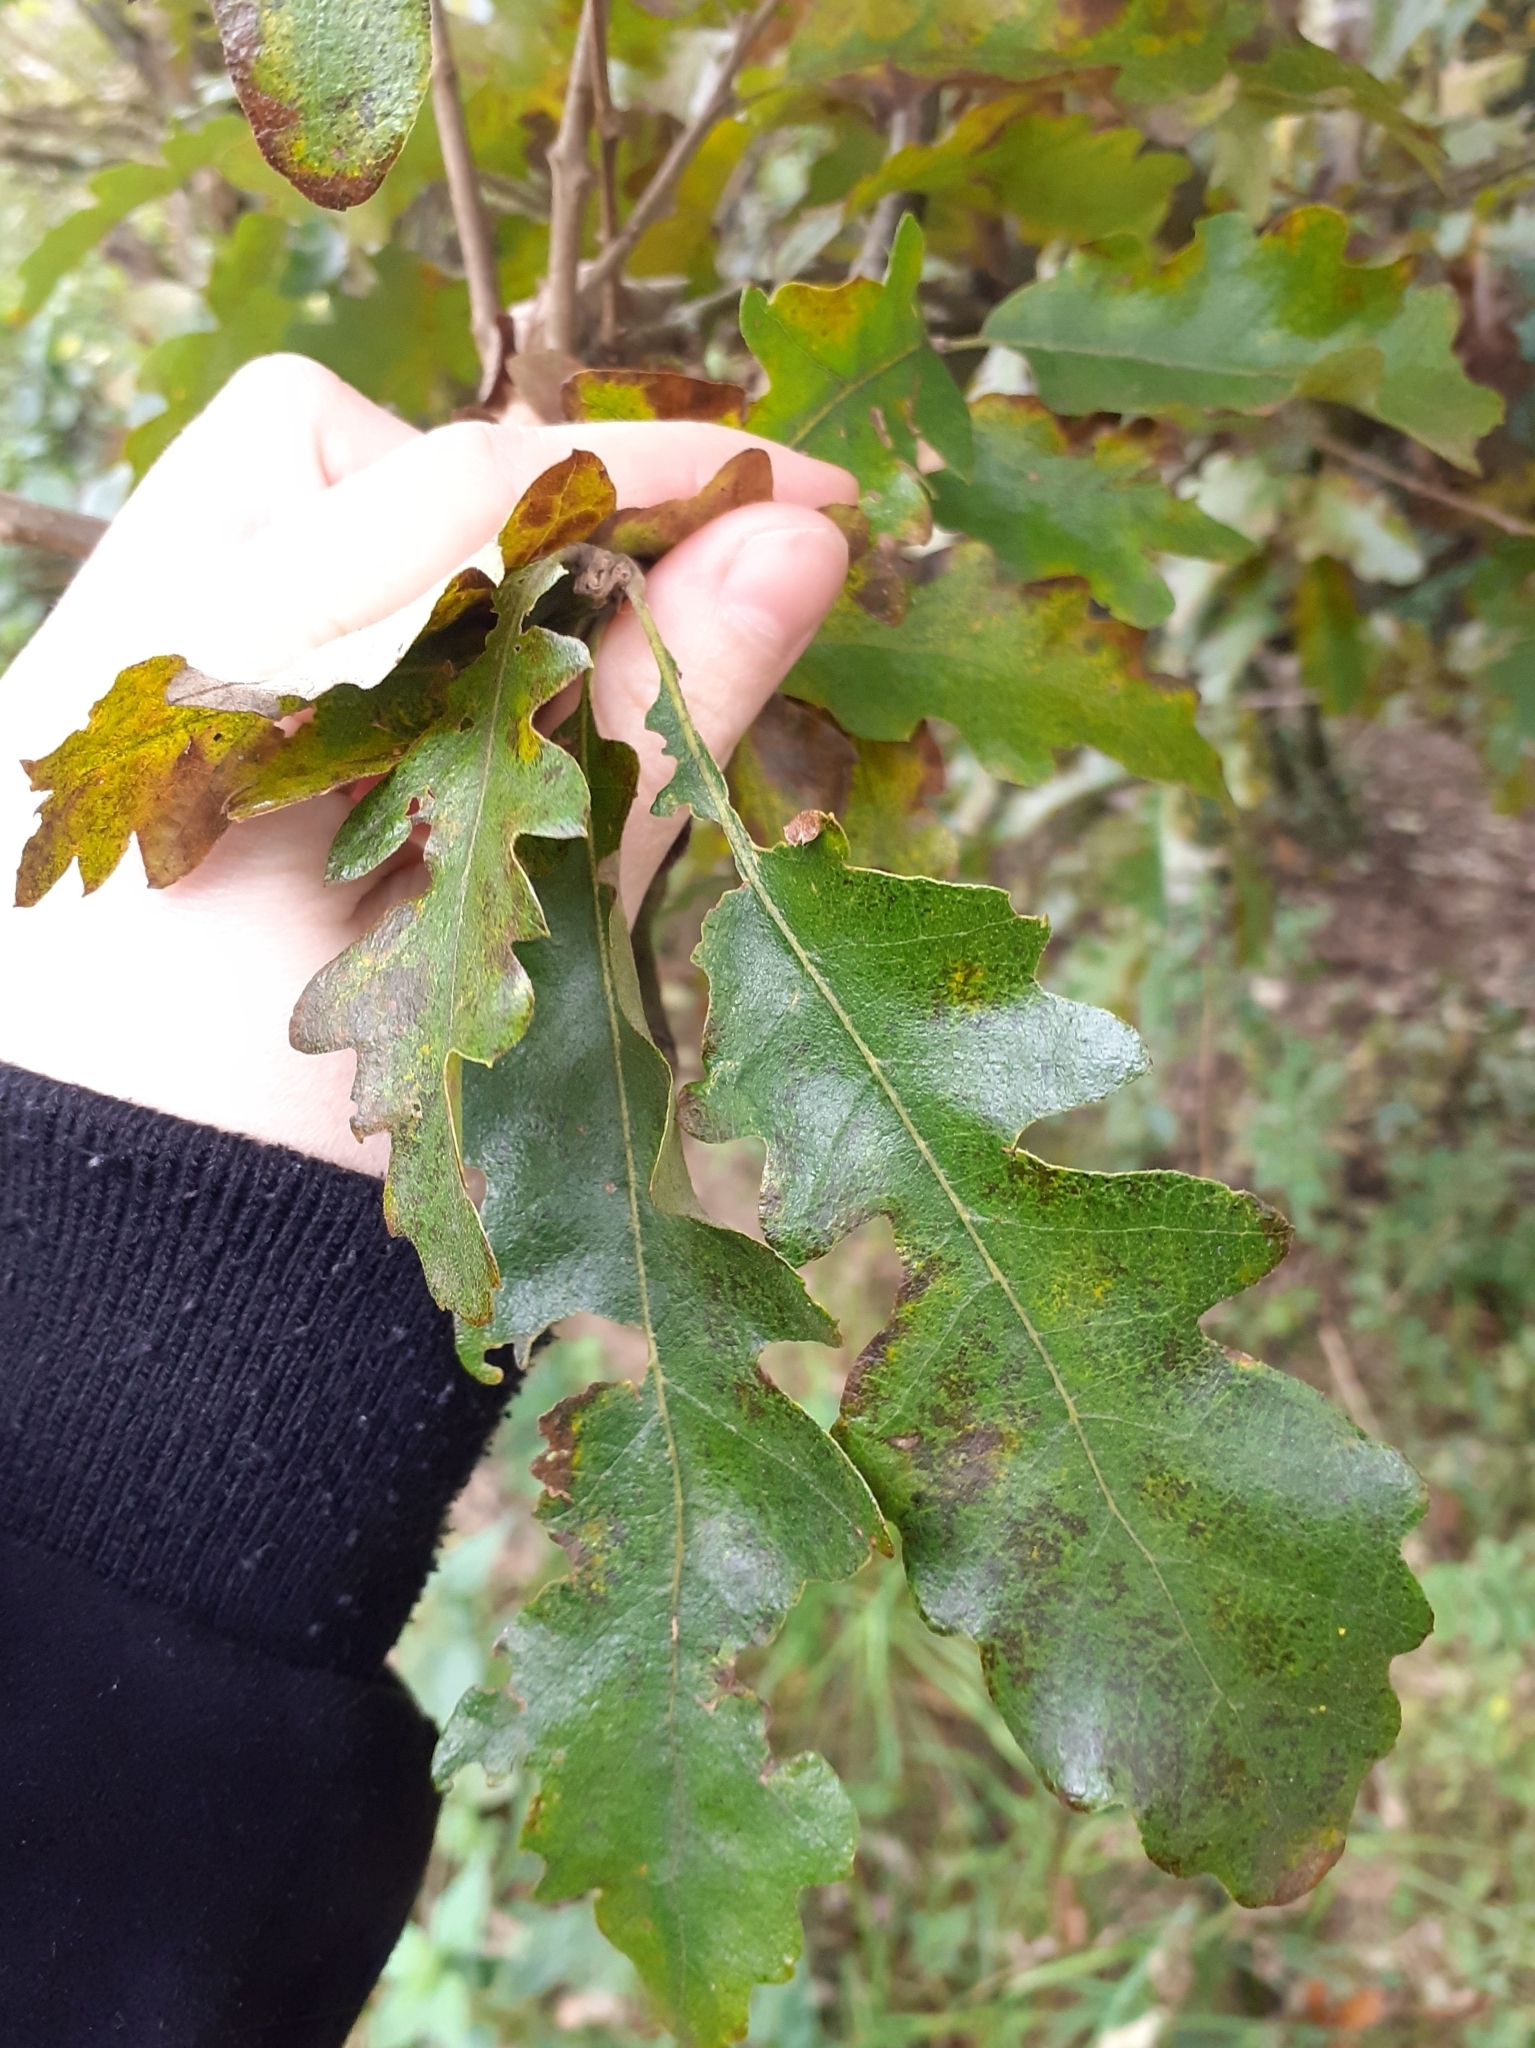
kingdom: Plantae
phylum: Tracheophyta
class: Magnoliopsida
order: Fagales
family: Fagaceae
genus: Quercus
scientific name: Quercus cerris
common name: Turkey oak
